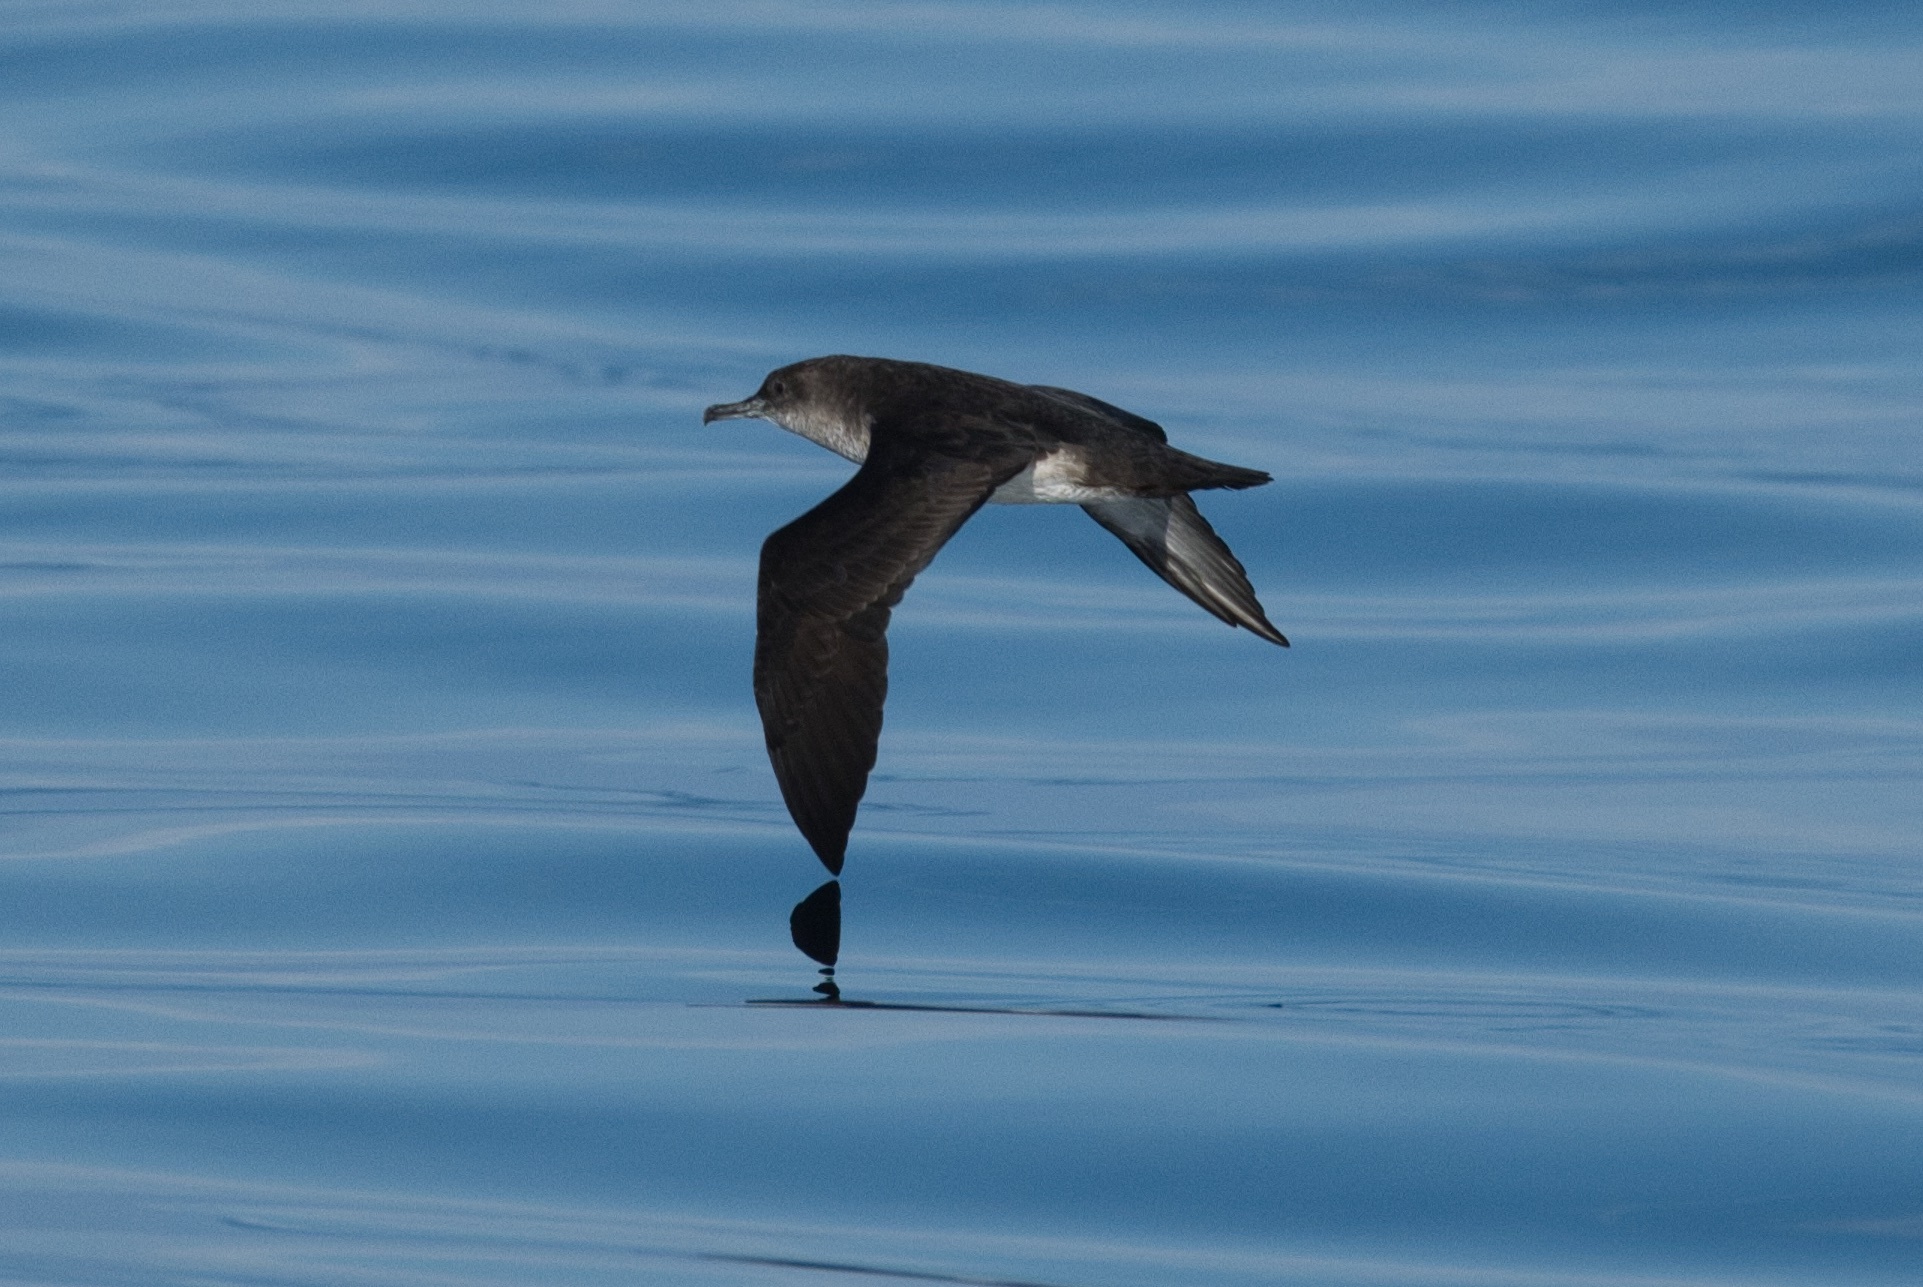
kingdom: Animalia
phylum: Chordata
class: Aves
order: Procellariiformes
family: Procellariidae
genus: Puffinus
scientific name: Puffinus opisthomelas
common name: Black-vented shearwater
